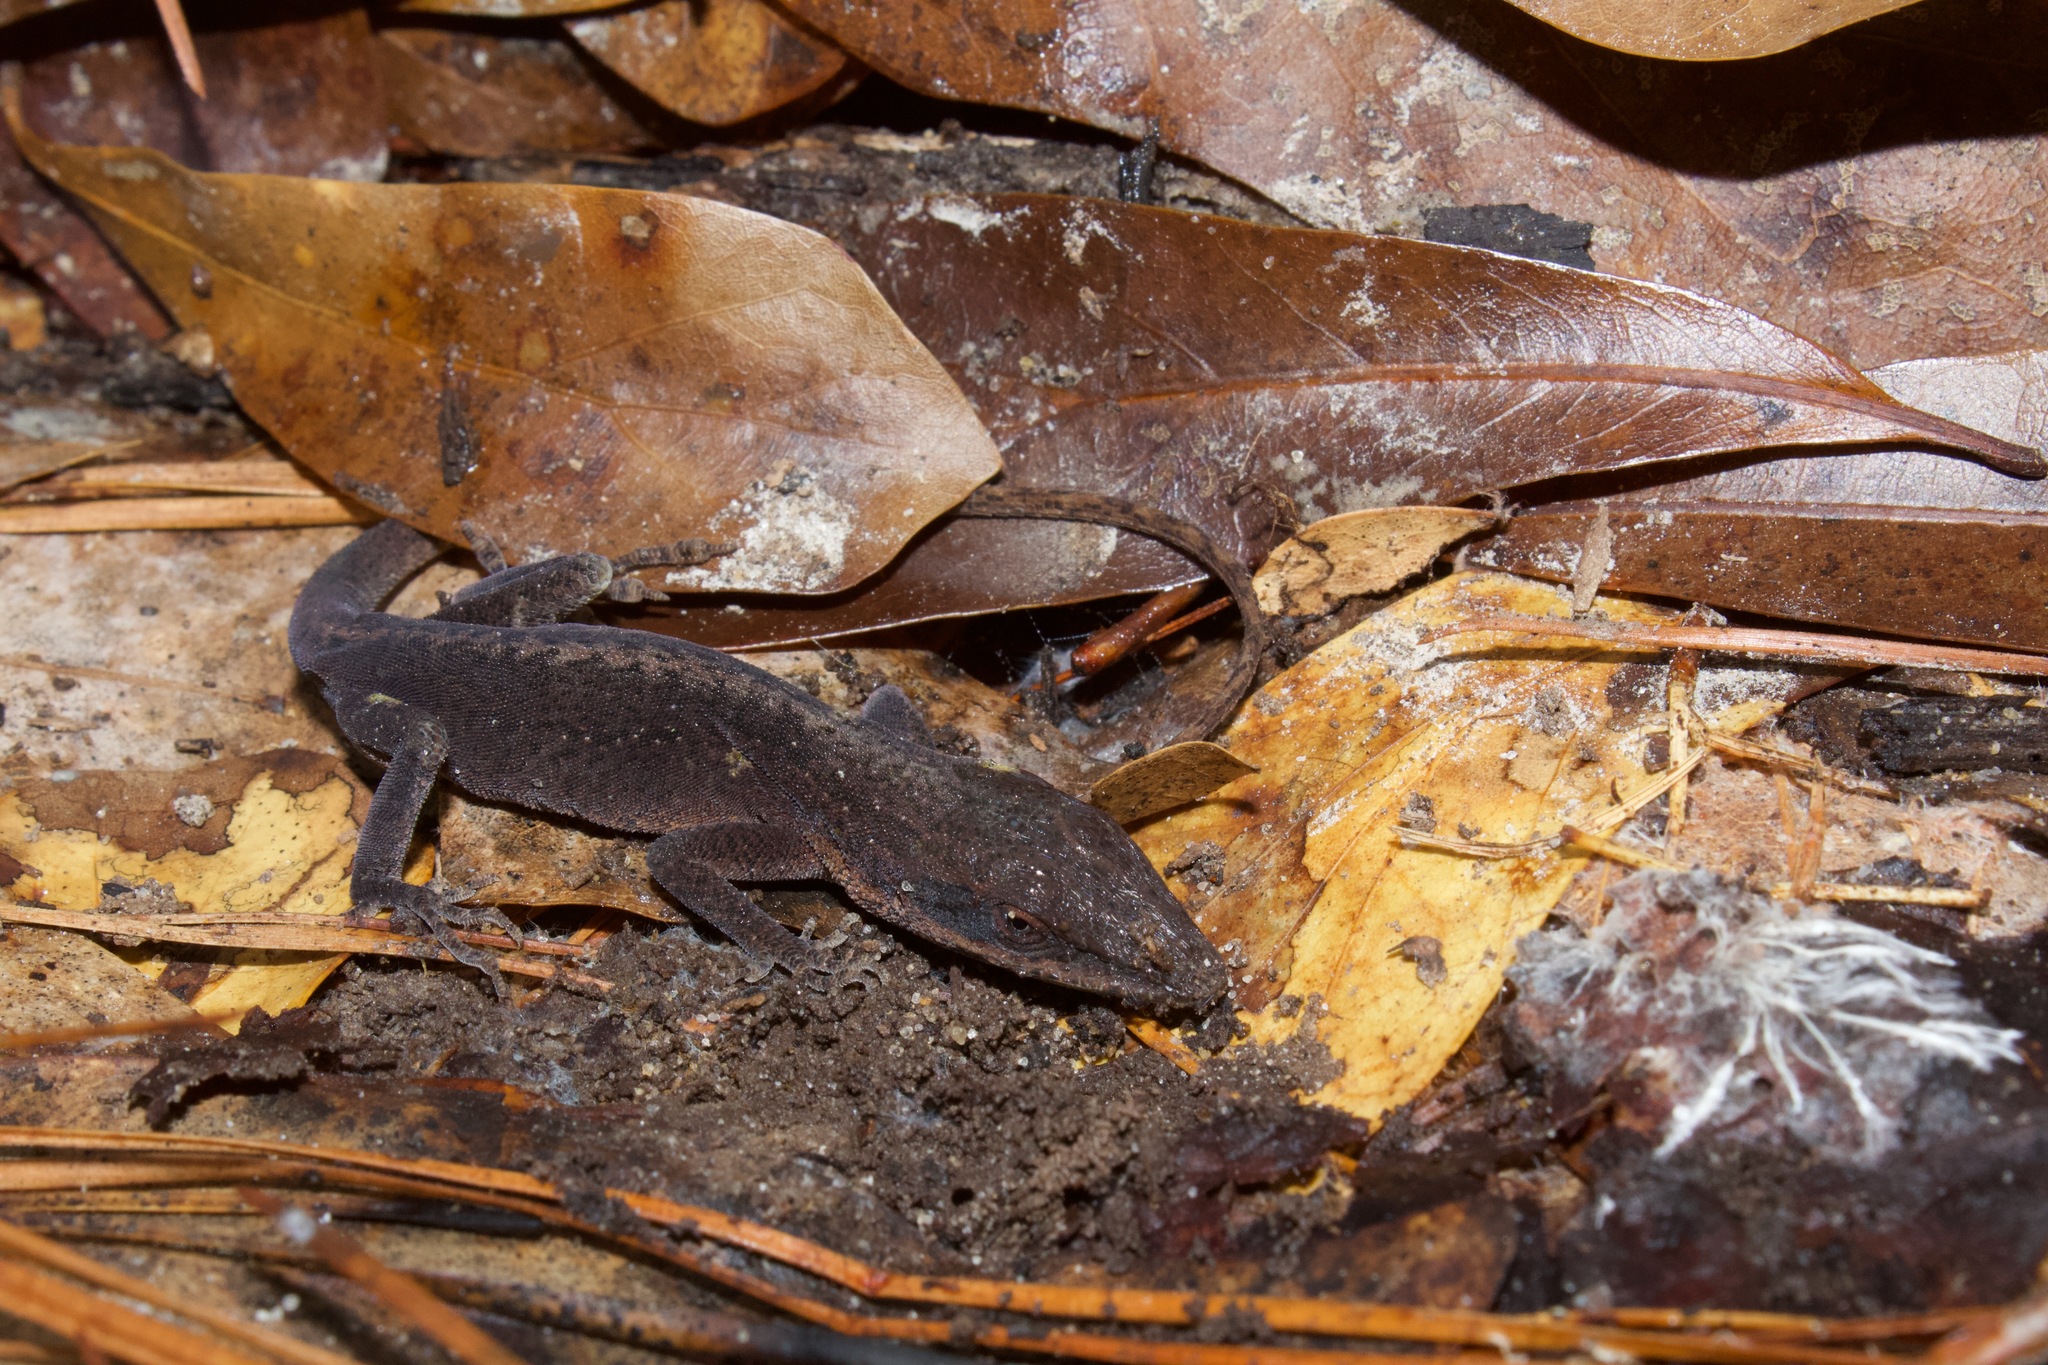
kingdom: Animalia
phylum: Chordata
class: Squamata
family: Dactyloidae
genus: Anolis
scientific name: Anolis carolinensis
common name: Green anole
